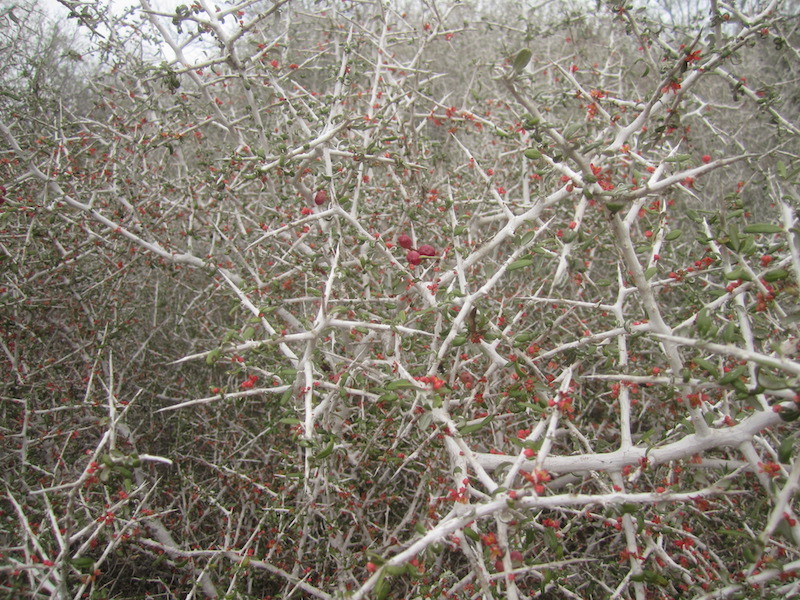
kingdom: Plantae
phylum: Tracheophyta
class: Magnoliopsida
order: Sapindales
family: Simaroubaceae
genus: Castela
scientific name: Castela erecta
